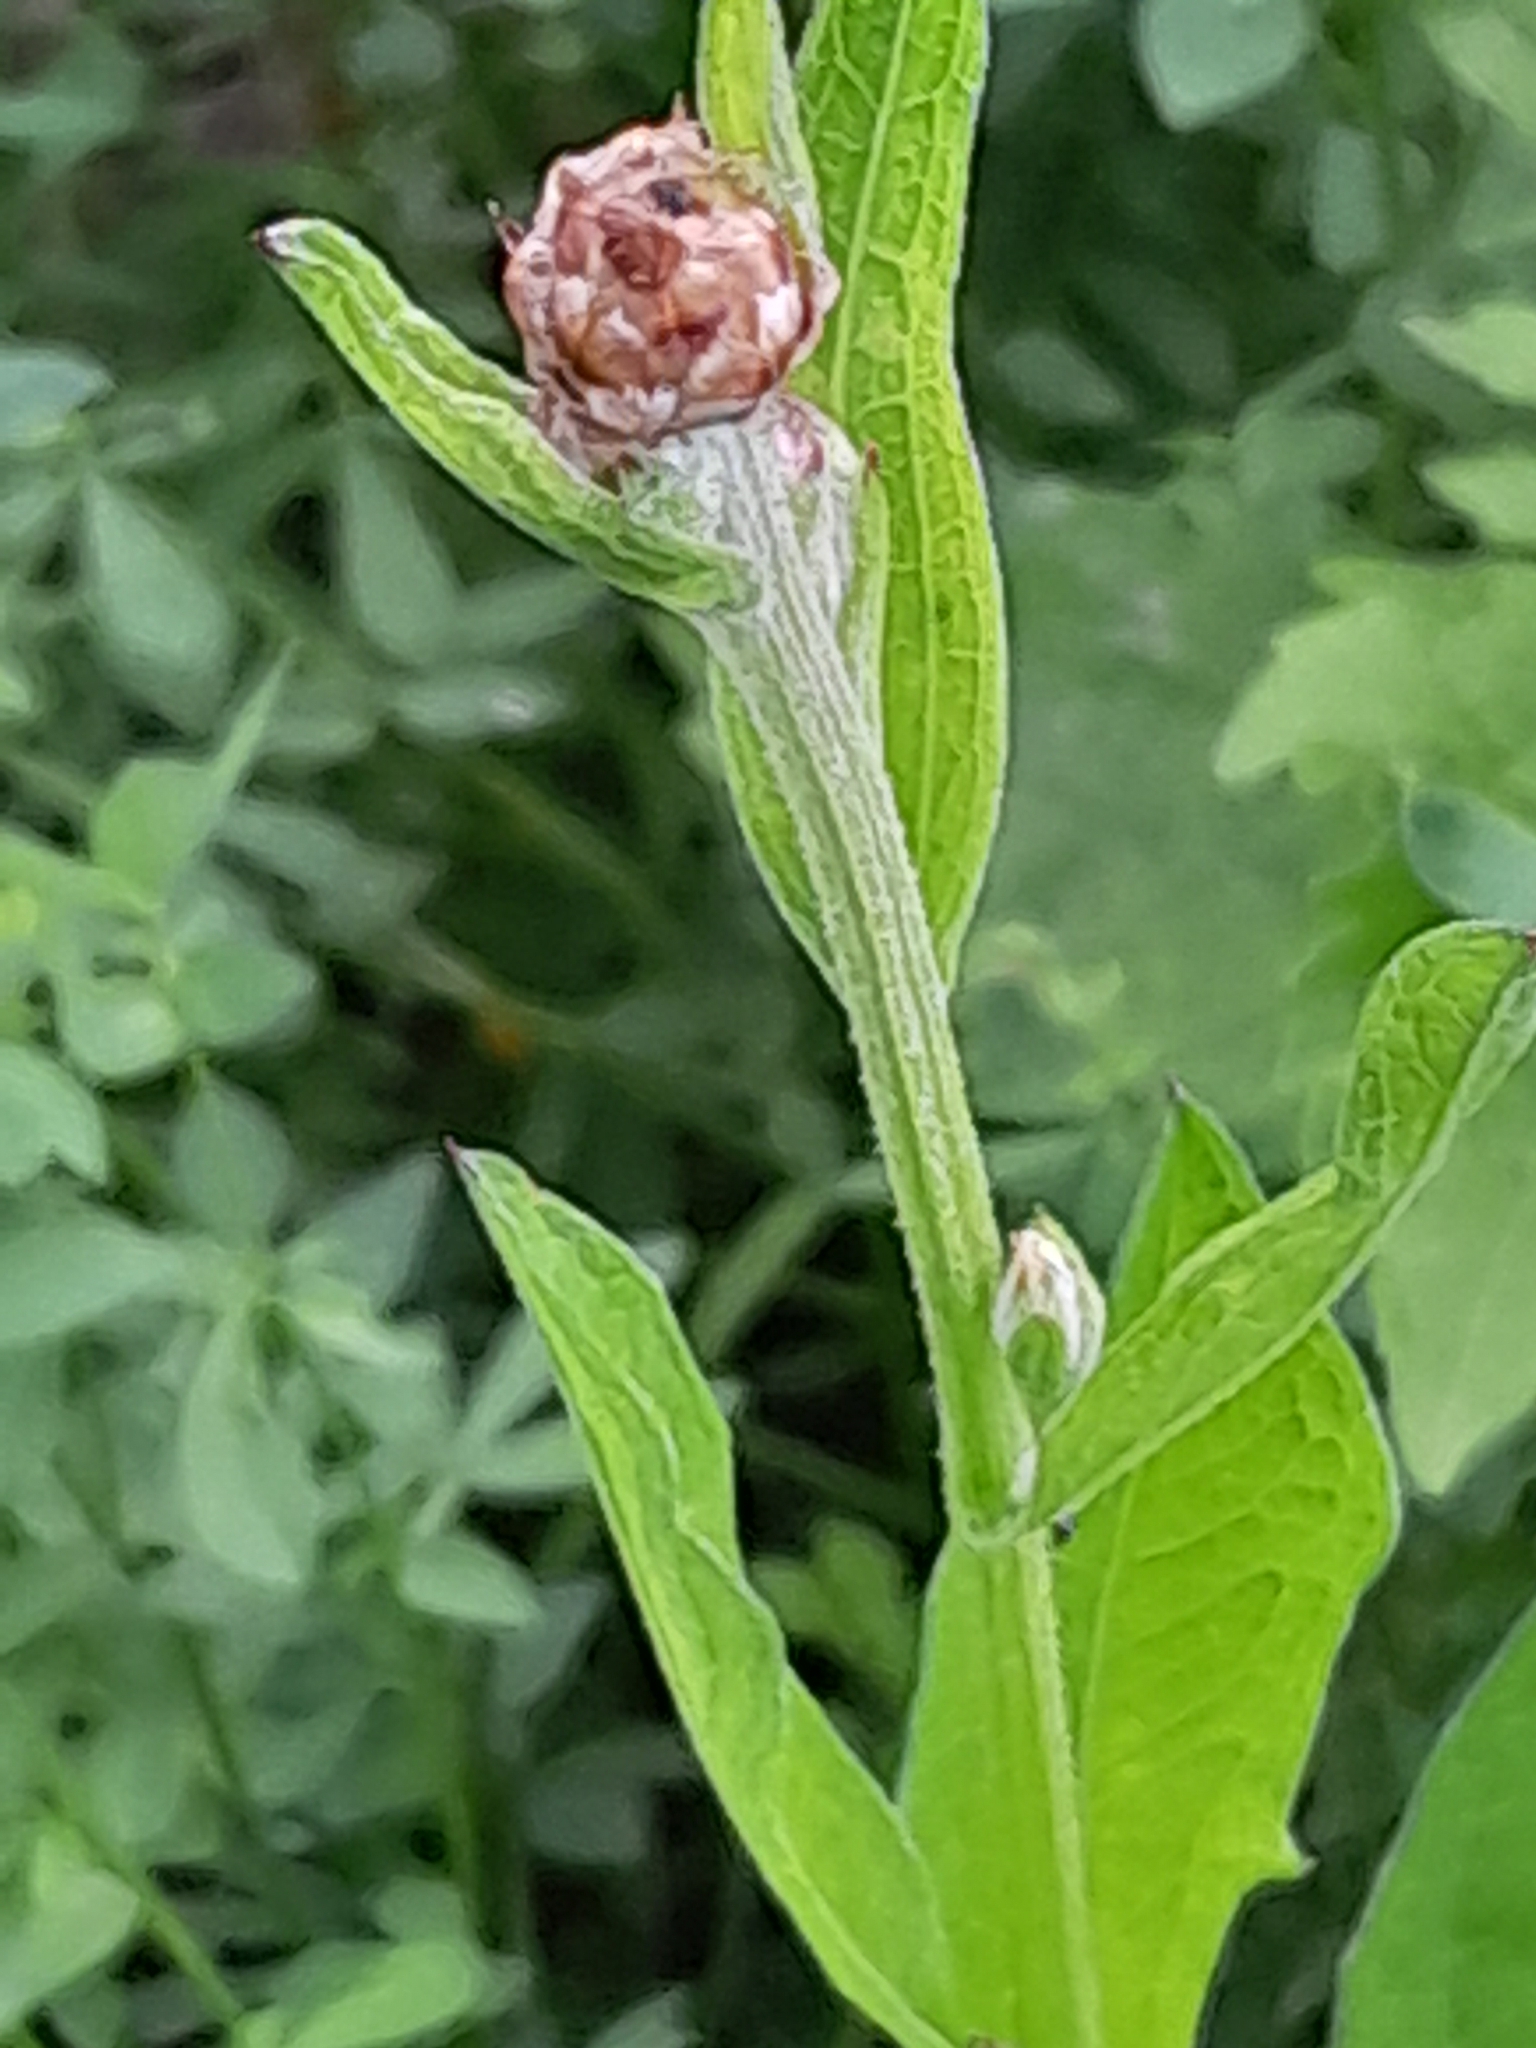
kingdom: Plantae
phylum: Tracheophyta
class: Magnoliopsida
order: Asterales
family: Asteraceae
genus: Centaurea
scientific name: Centaurea jacea
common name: Brown knapweed
